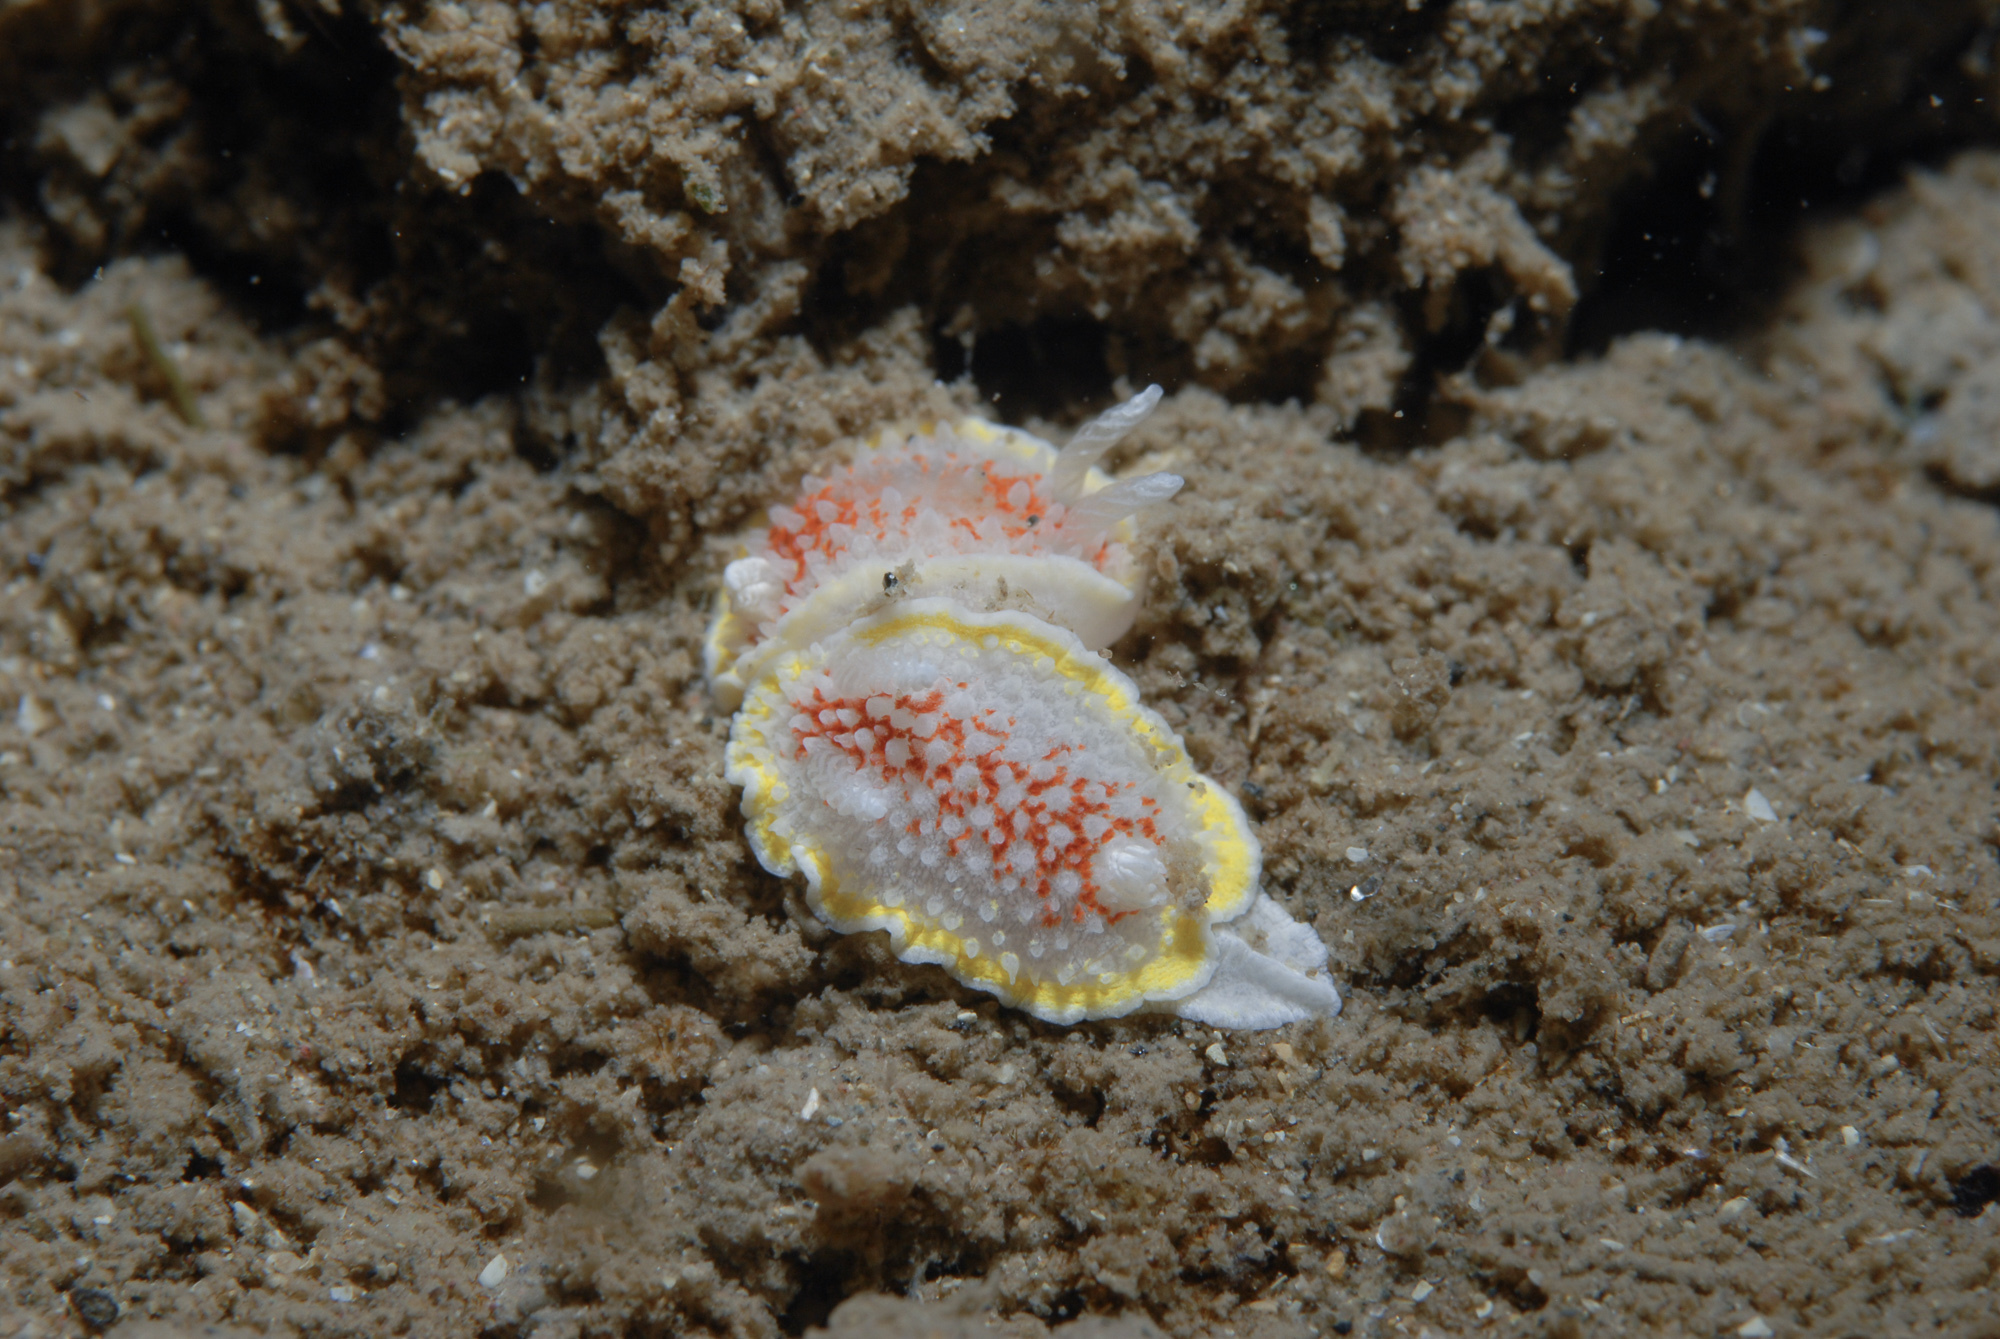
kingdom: Animalia
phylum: Mollusca
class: Gastropoda
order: Nudibranchia
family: Calycidorididae
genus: Diaphorodoris
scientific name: Diaphorodoris luteocincta
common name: Fried egg nudibranch
